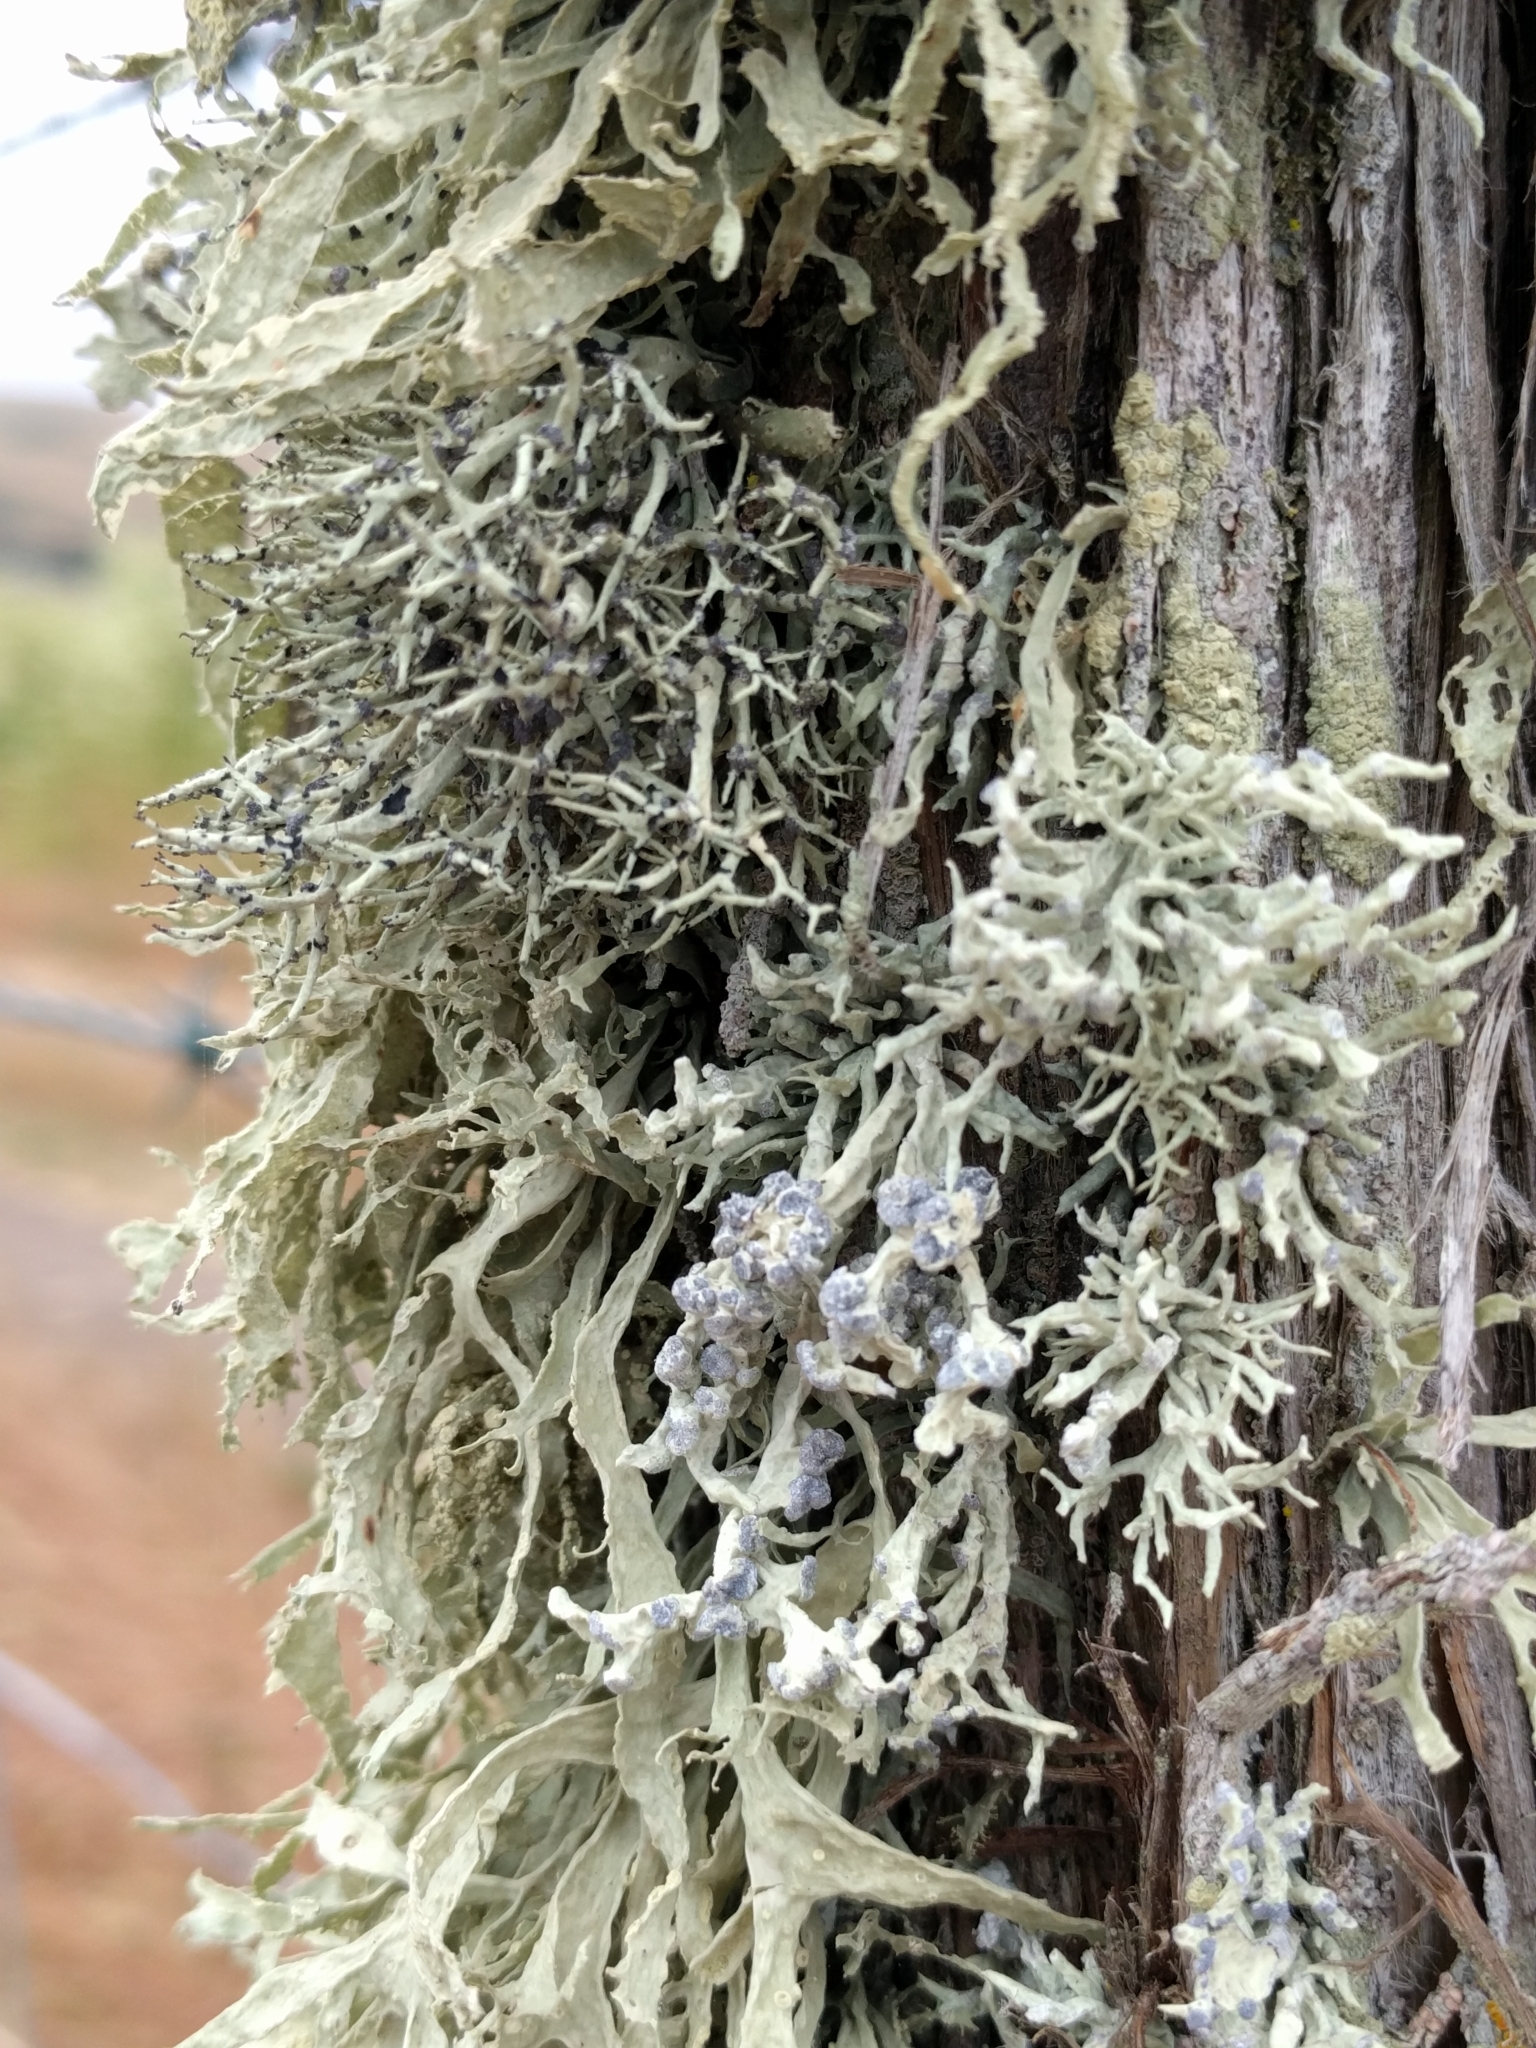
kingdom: Fungi
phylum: Ascomycota
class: Lecanoromycetes
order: Lecanorales
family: Ramalinaceae
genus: Niebla
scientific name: Niebla cephalota
